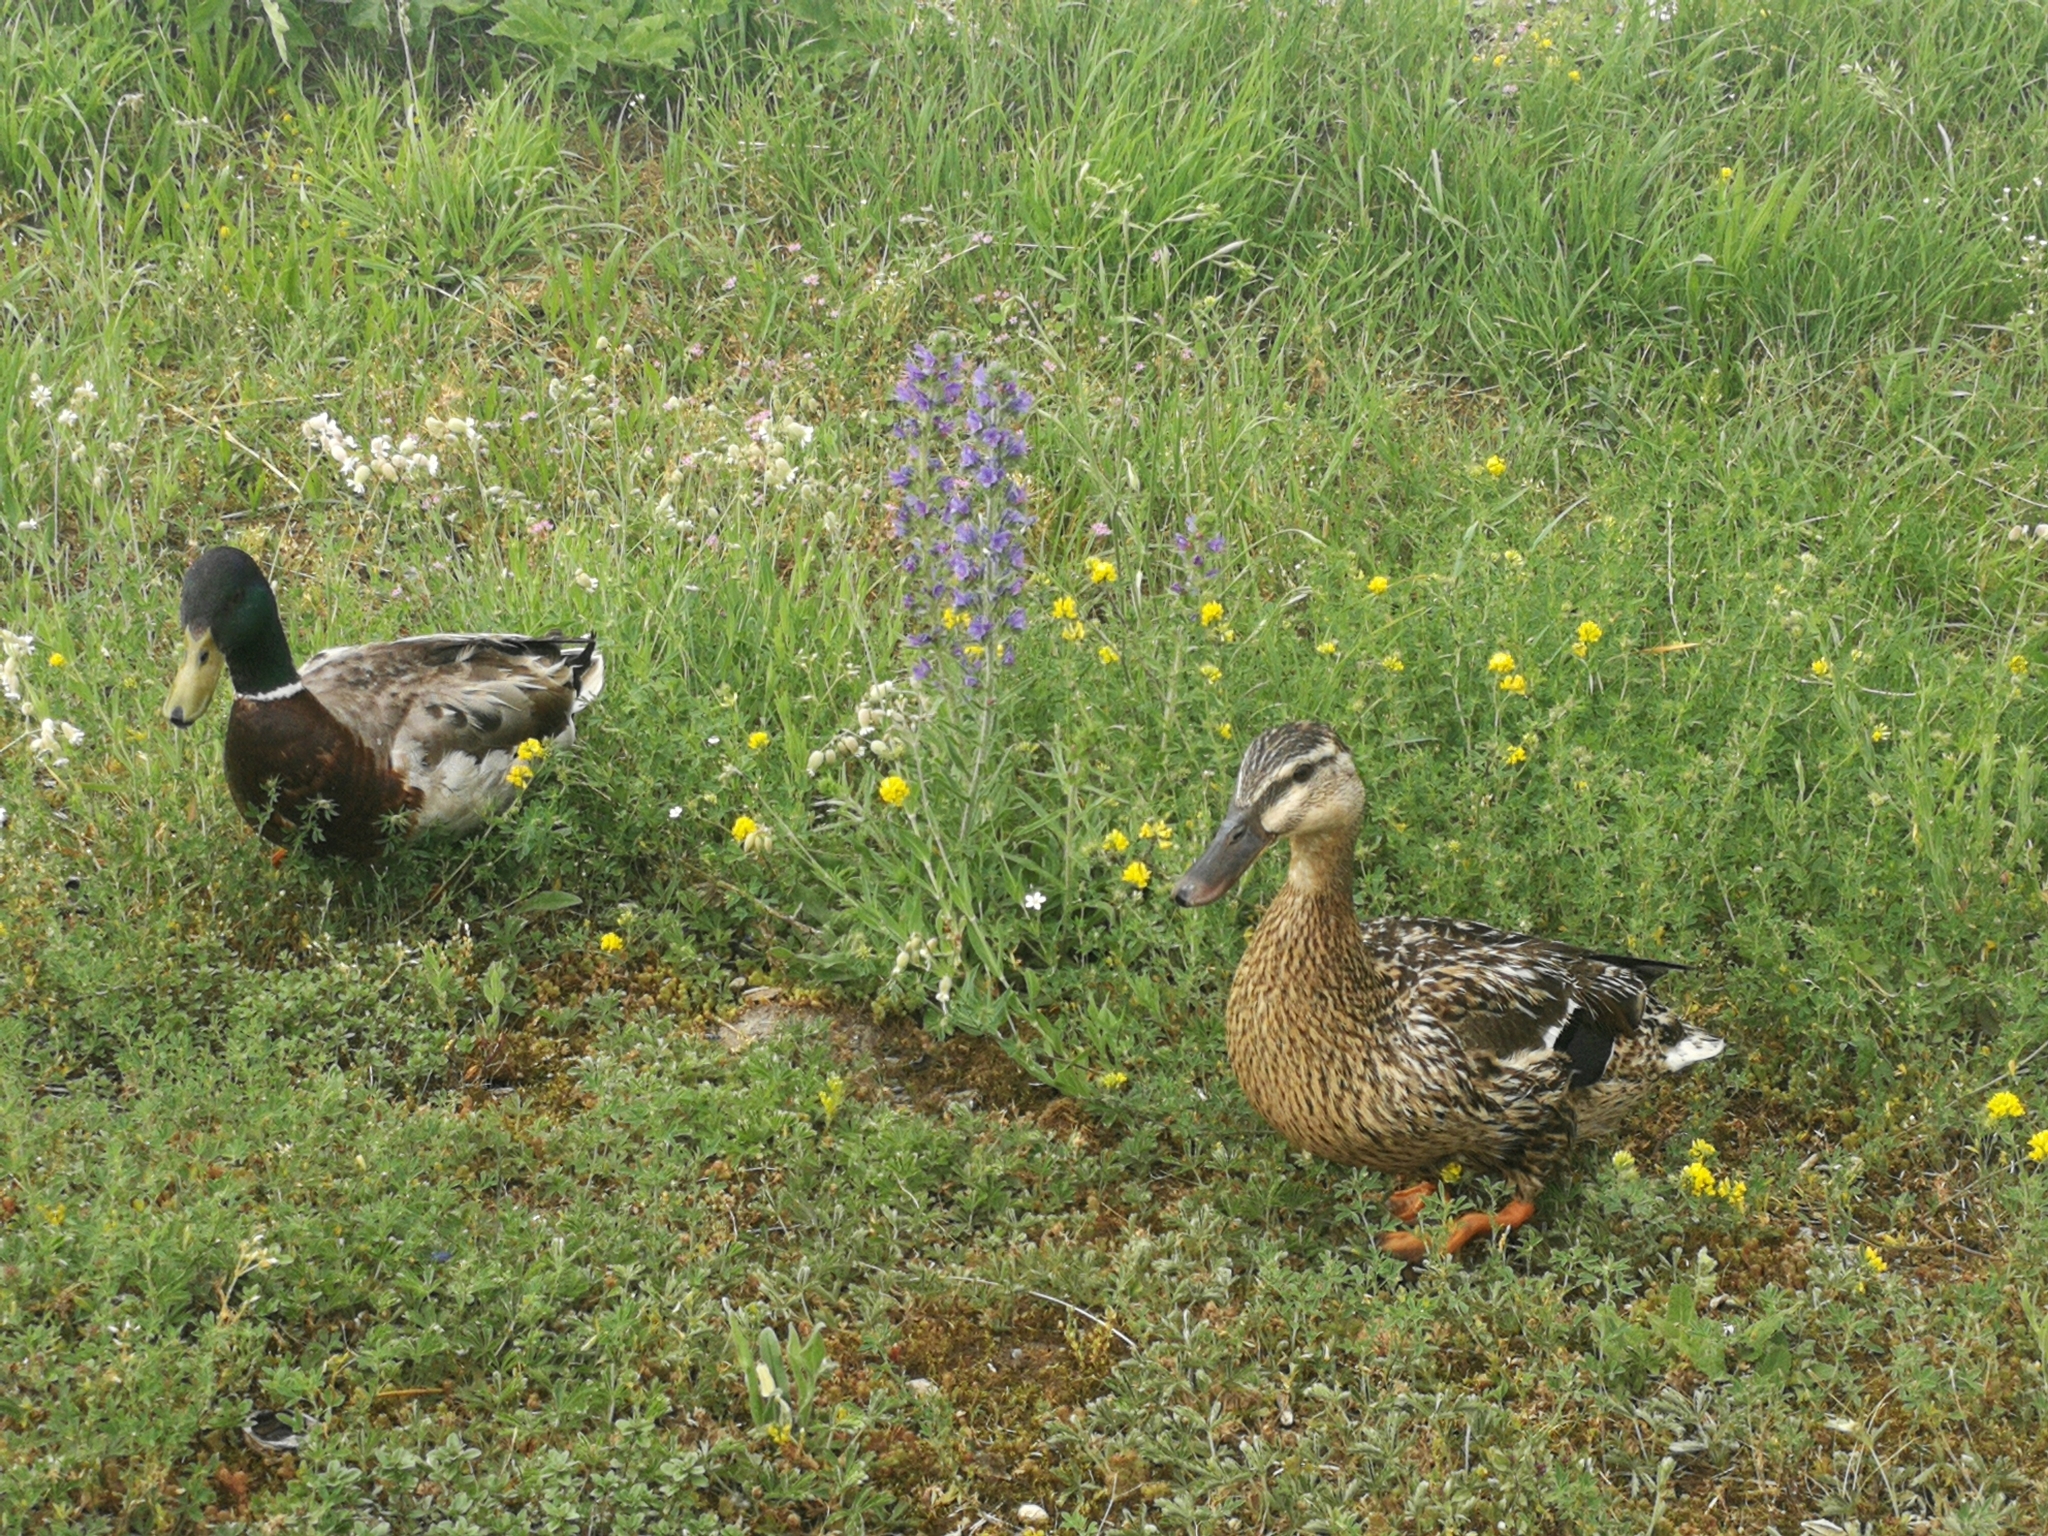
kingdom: Animalia
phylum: Chordata
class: Aves
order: Anseriformes
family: Anatidae
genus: Anas
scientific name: Anas platyrhynchos
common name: Mallard
